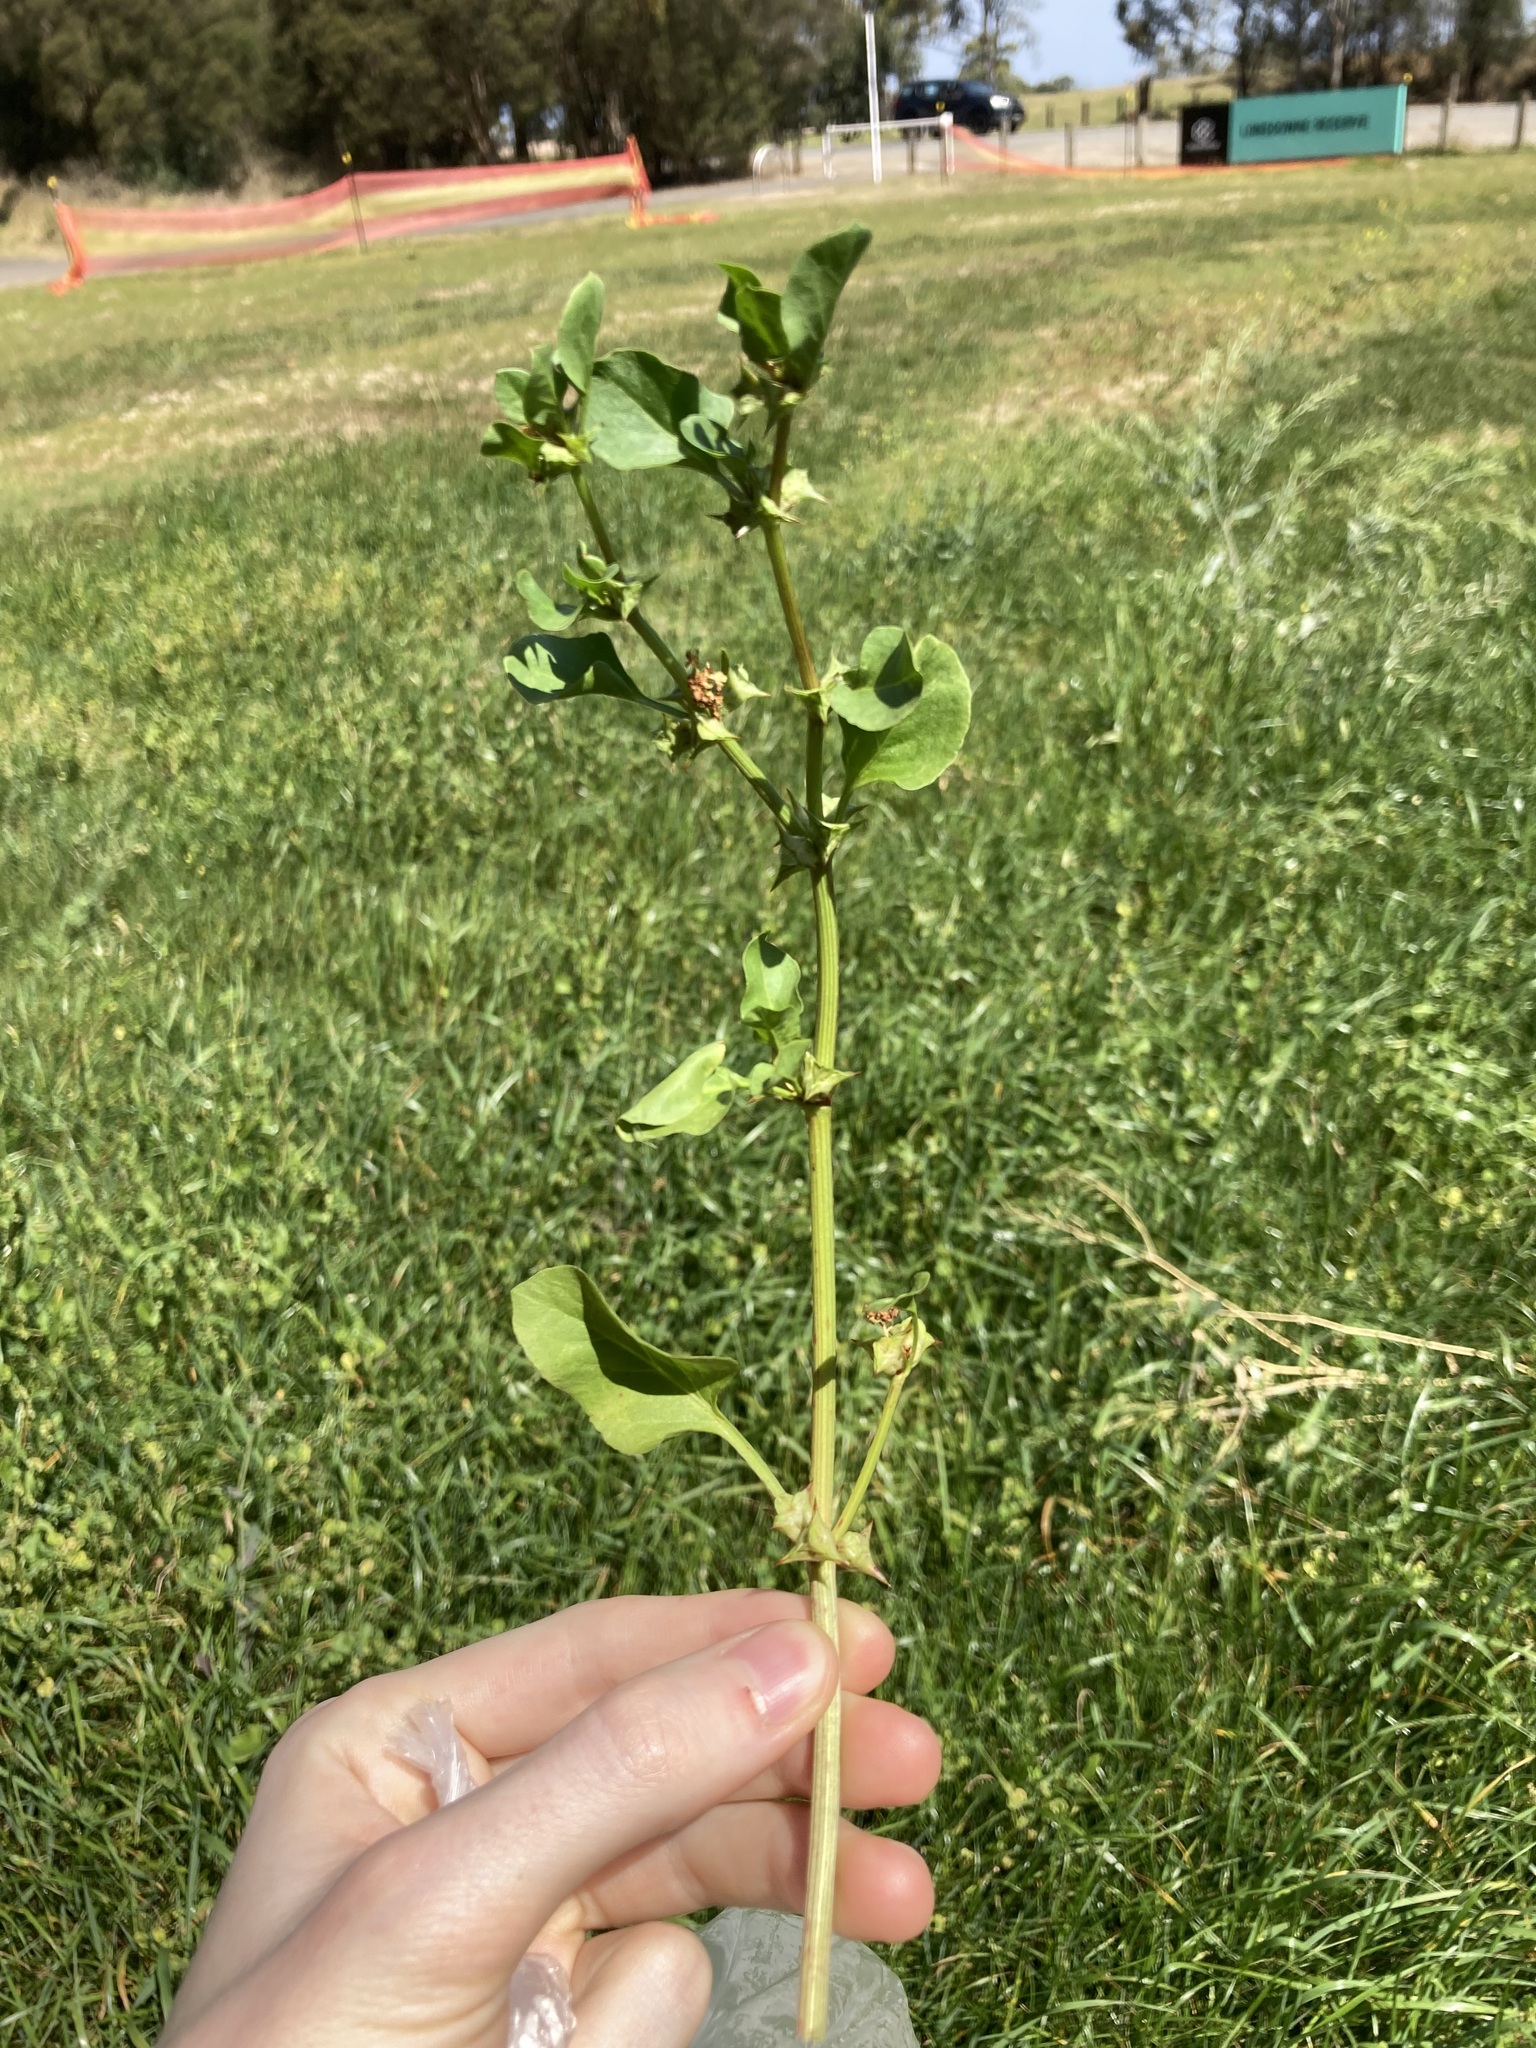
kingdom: Plantae
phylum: Tracheophyta
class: Magnoliopsida
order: Caryophyllales
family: Polygonaceae
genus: Rumex
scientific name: Rumex hypogaeus
